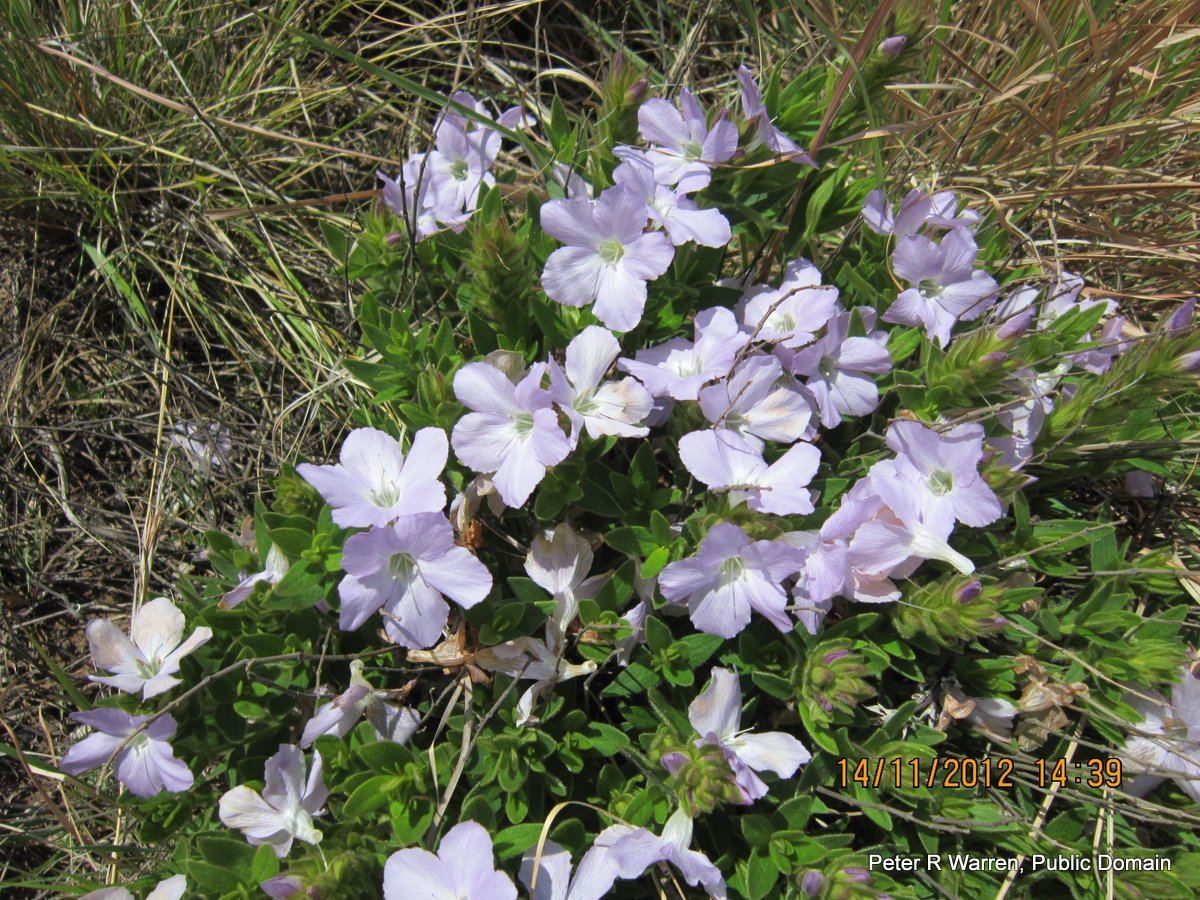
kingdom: Plantae
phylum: Tracheophyta
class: Magnoliopsida
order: Lamiales
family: Acanthaceae
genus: Barleria
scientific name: Barleria monticola
